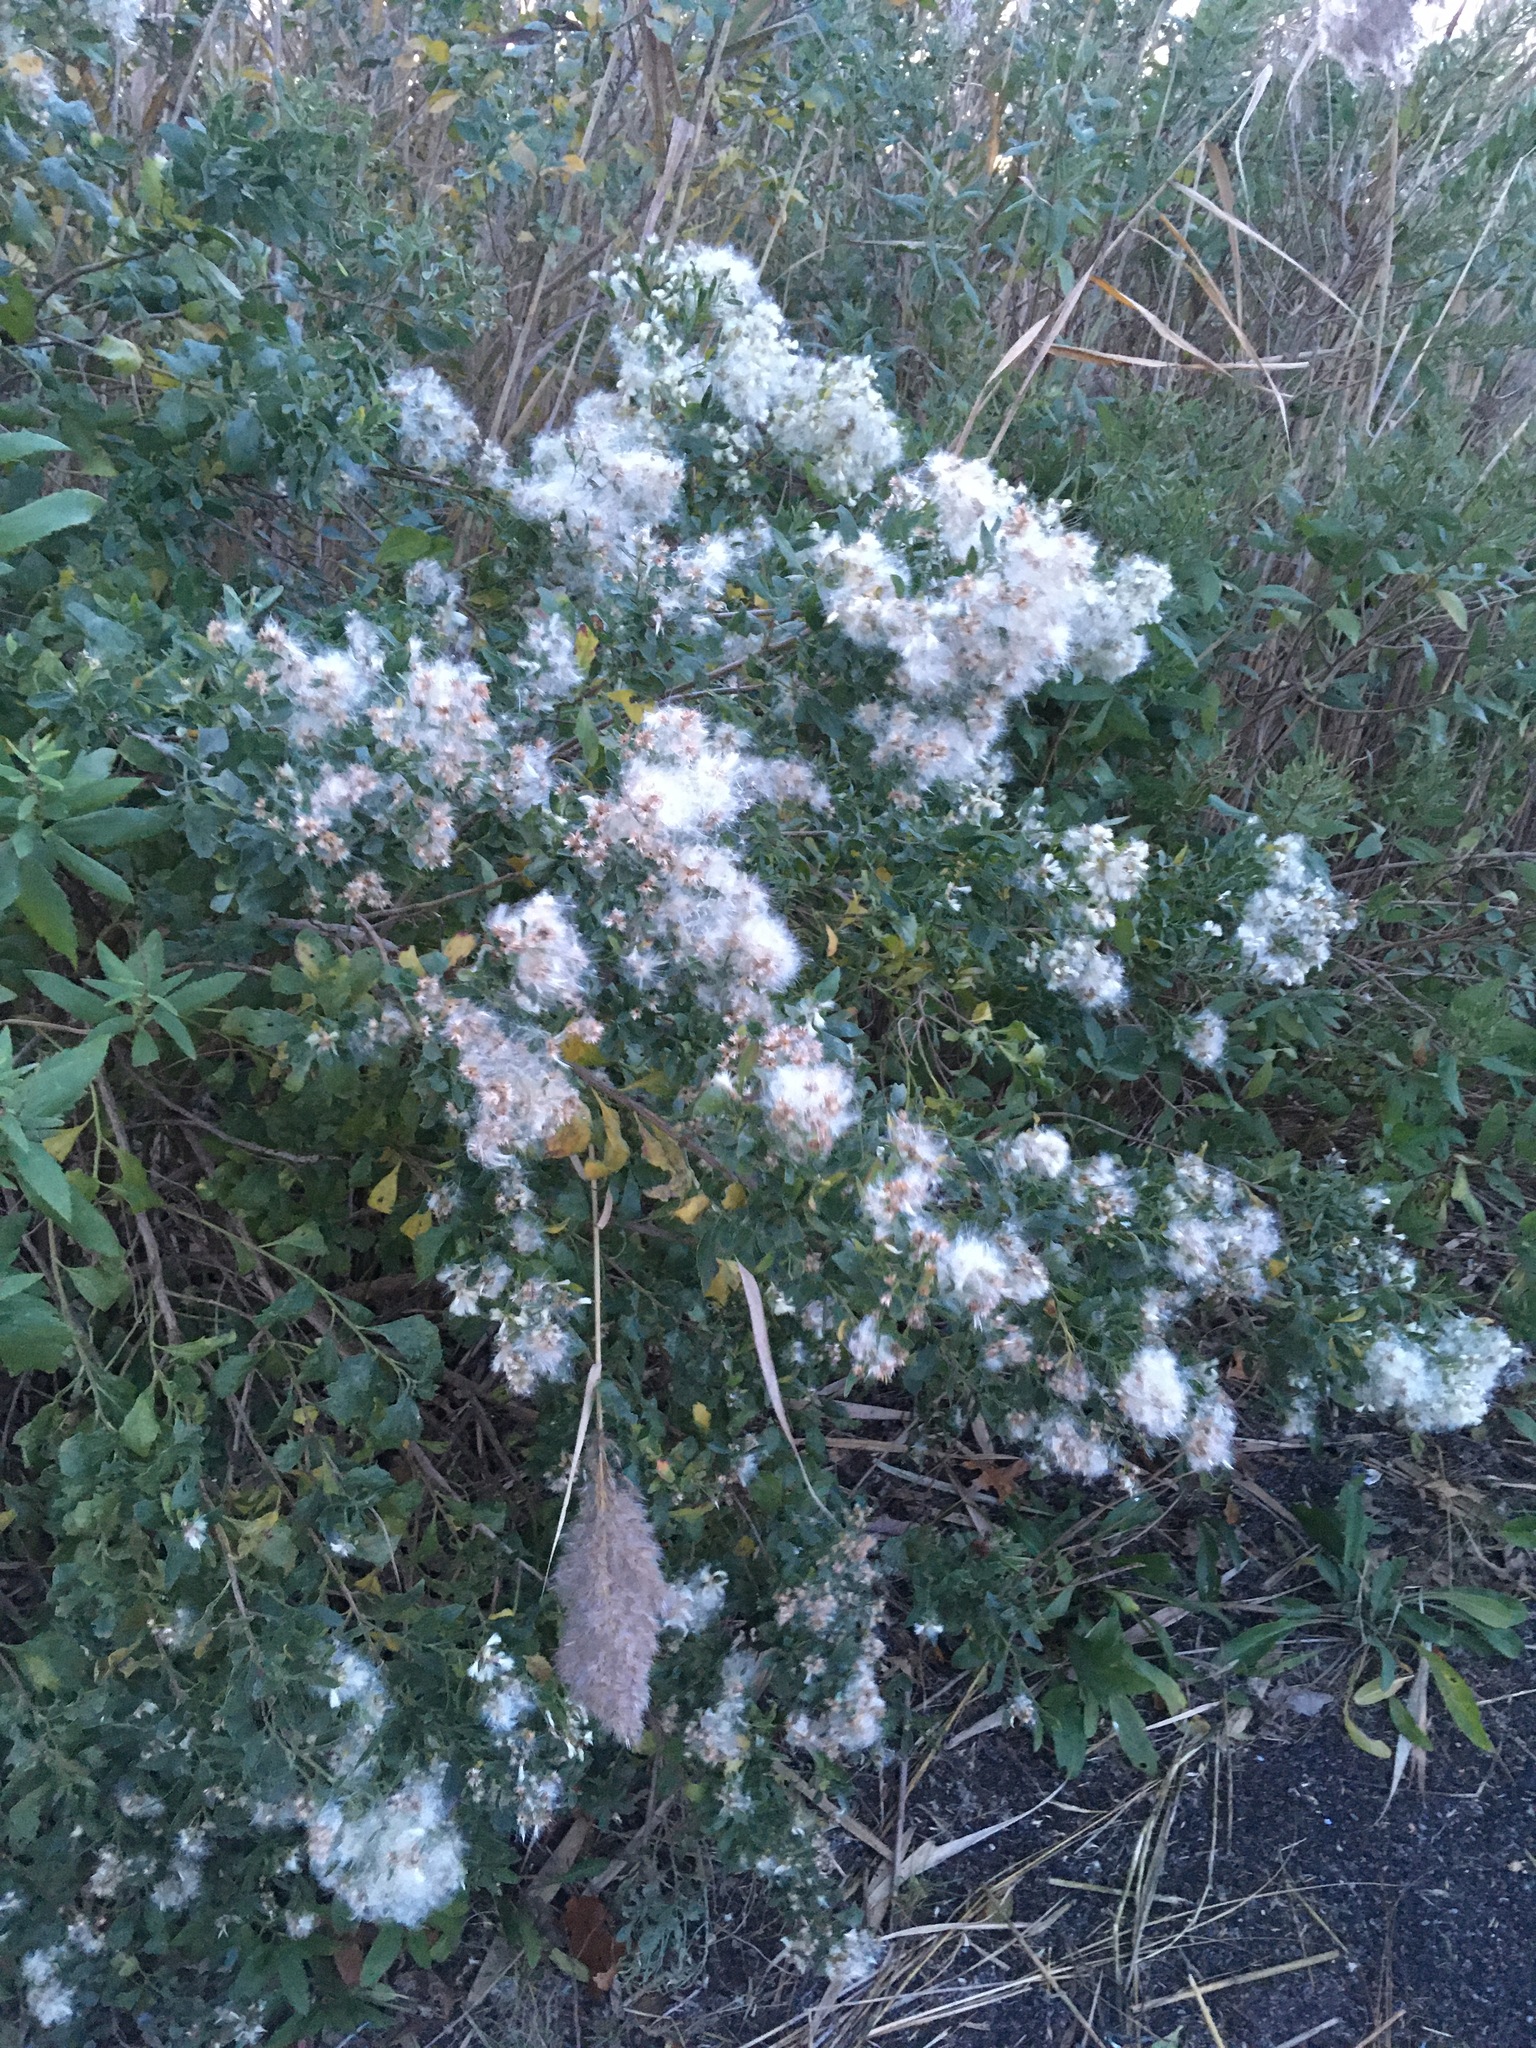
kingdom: Plantae
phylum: Tracheophyta
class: Magnoliopsida
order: Asterales
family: Asteraceae
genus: Baccharis
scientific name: Baccharis halimifolia
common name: Eastern baccharis
